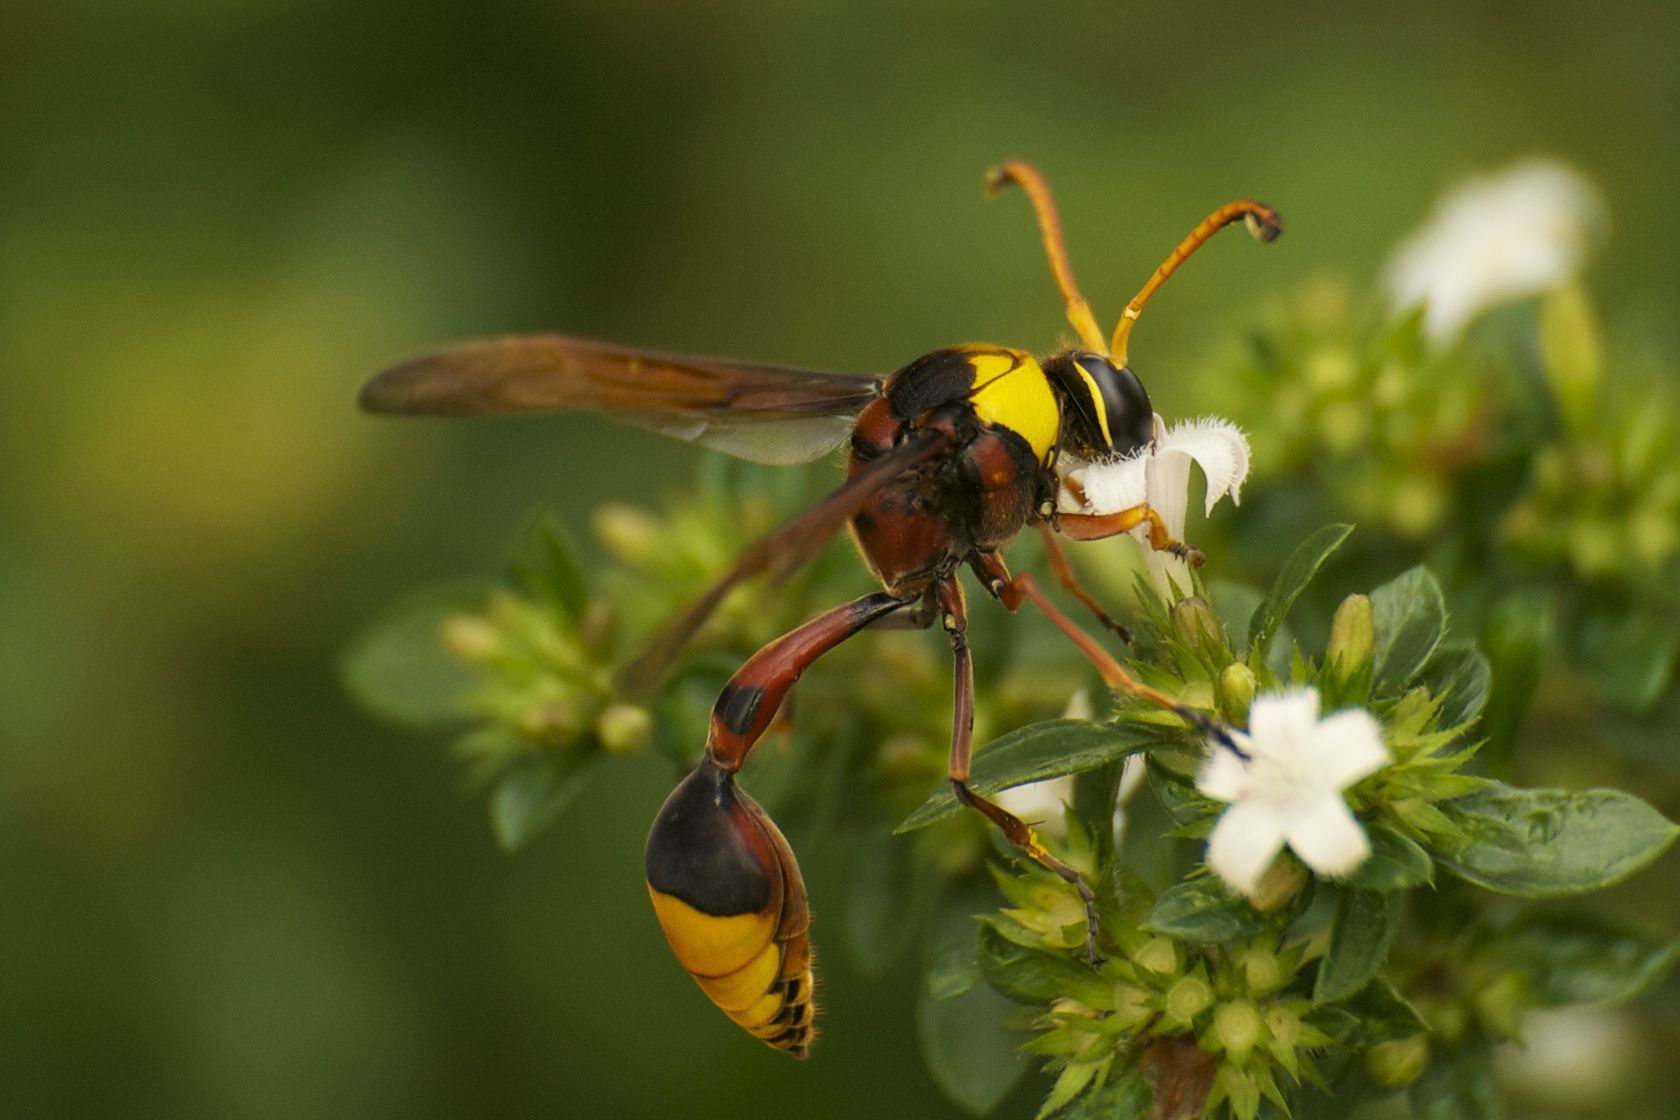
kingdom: Animalia
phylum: Arthropoda
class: Insecta
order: Hymenoptera
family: Eumenidae
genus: Delta
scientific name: Delta pyriforme
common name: Wasp
